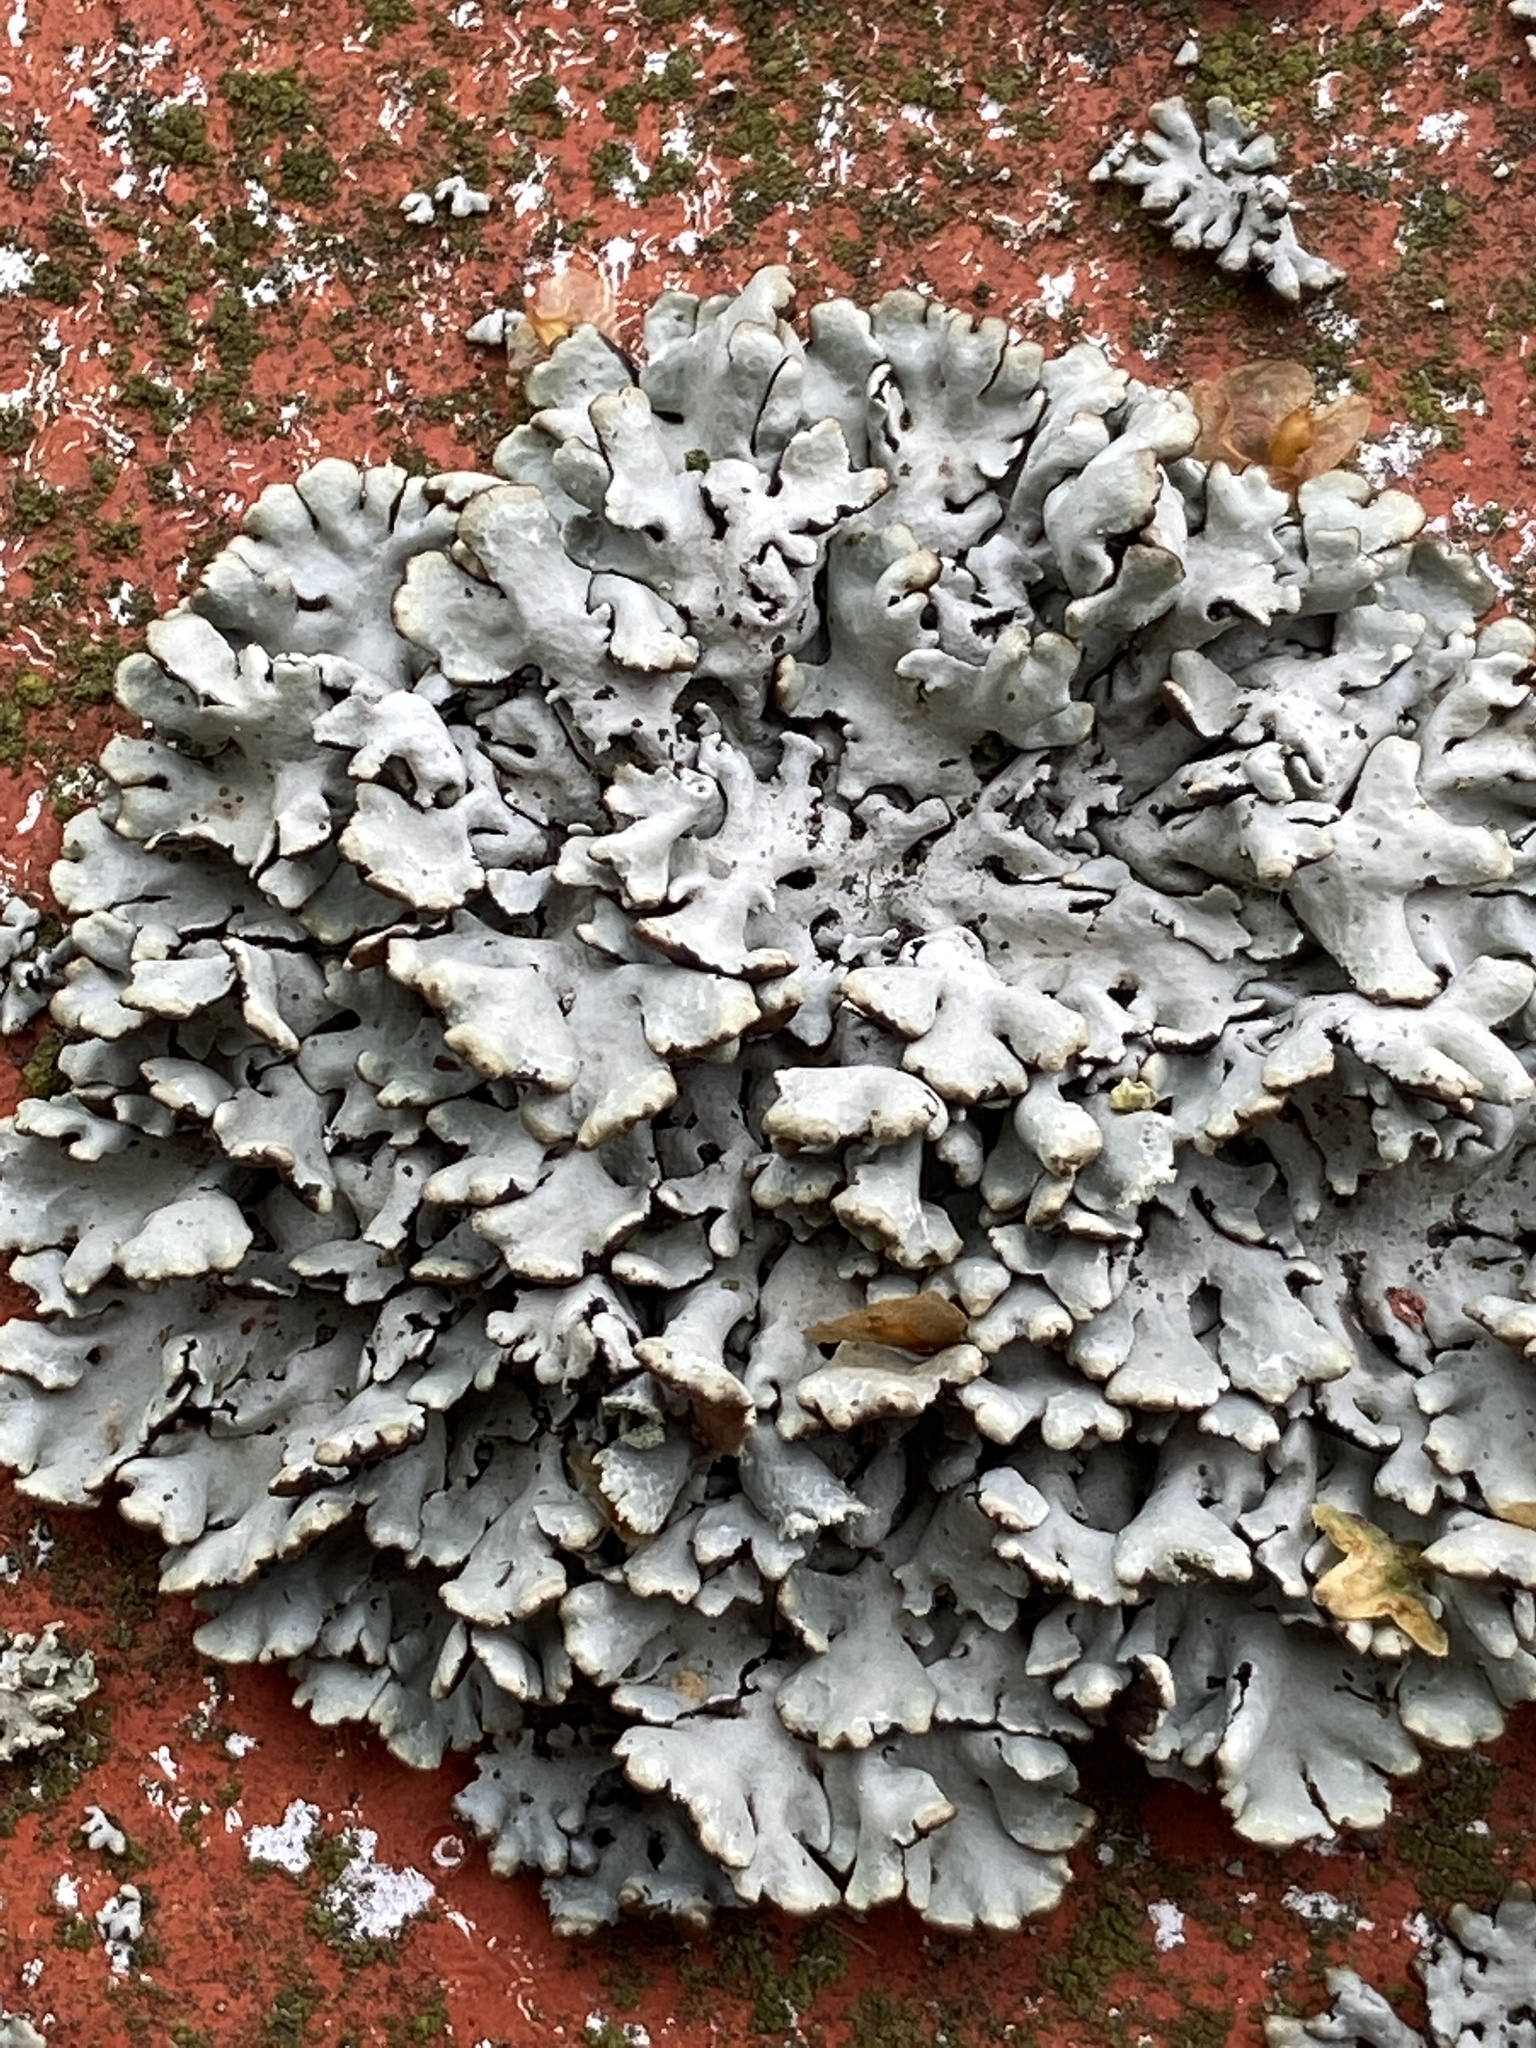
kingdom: Fungi
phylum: Ascomycota
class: Lecanoromycetes
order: Lecanorales
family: Parmeliaceae
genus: Hypogymnia
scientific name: Hypogymnia physodes
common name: Dark crottle
